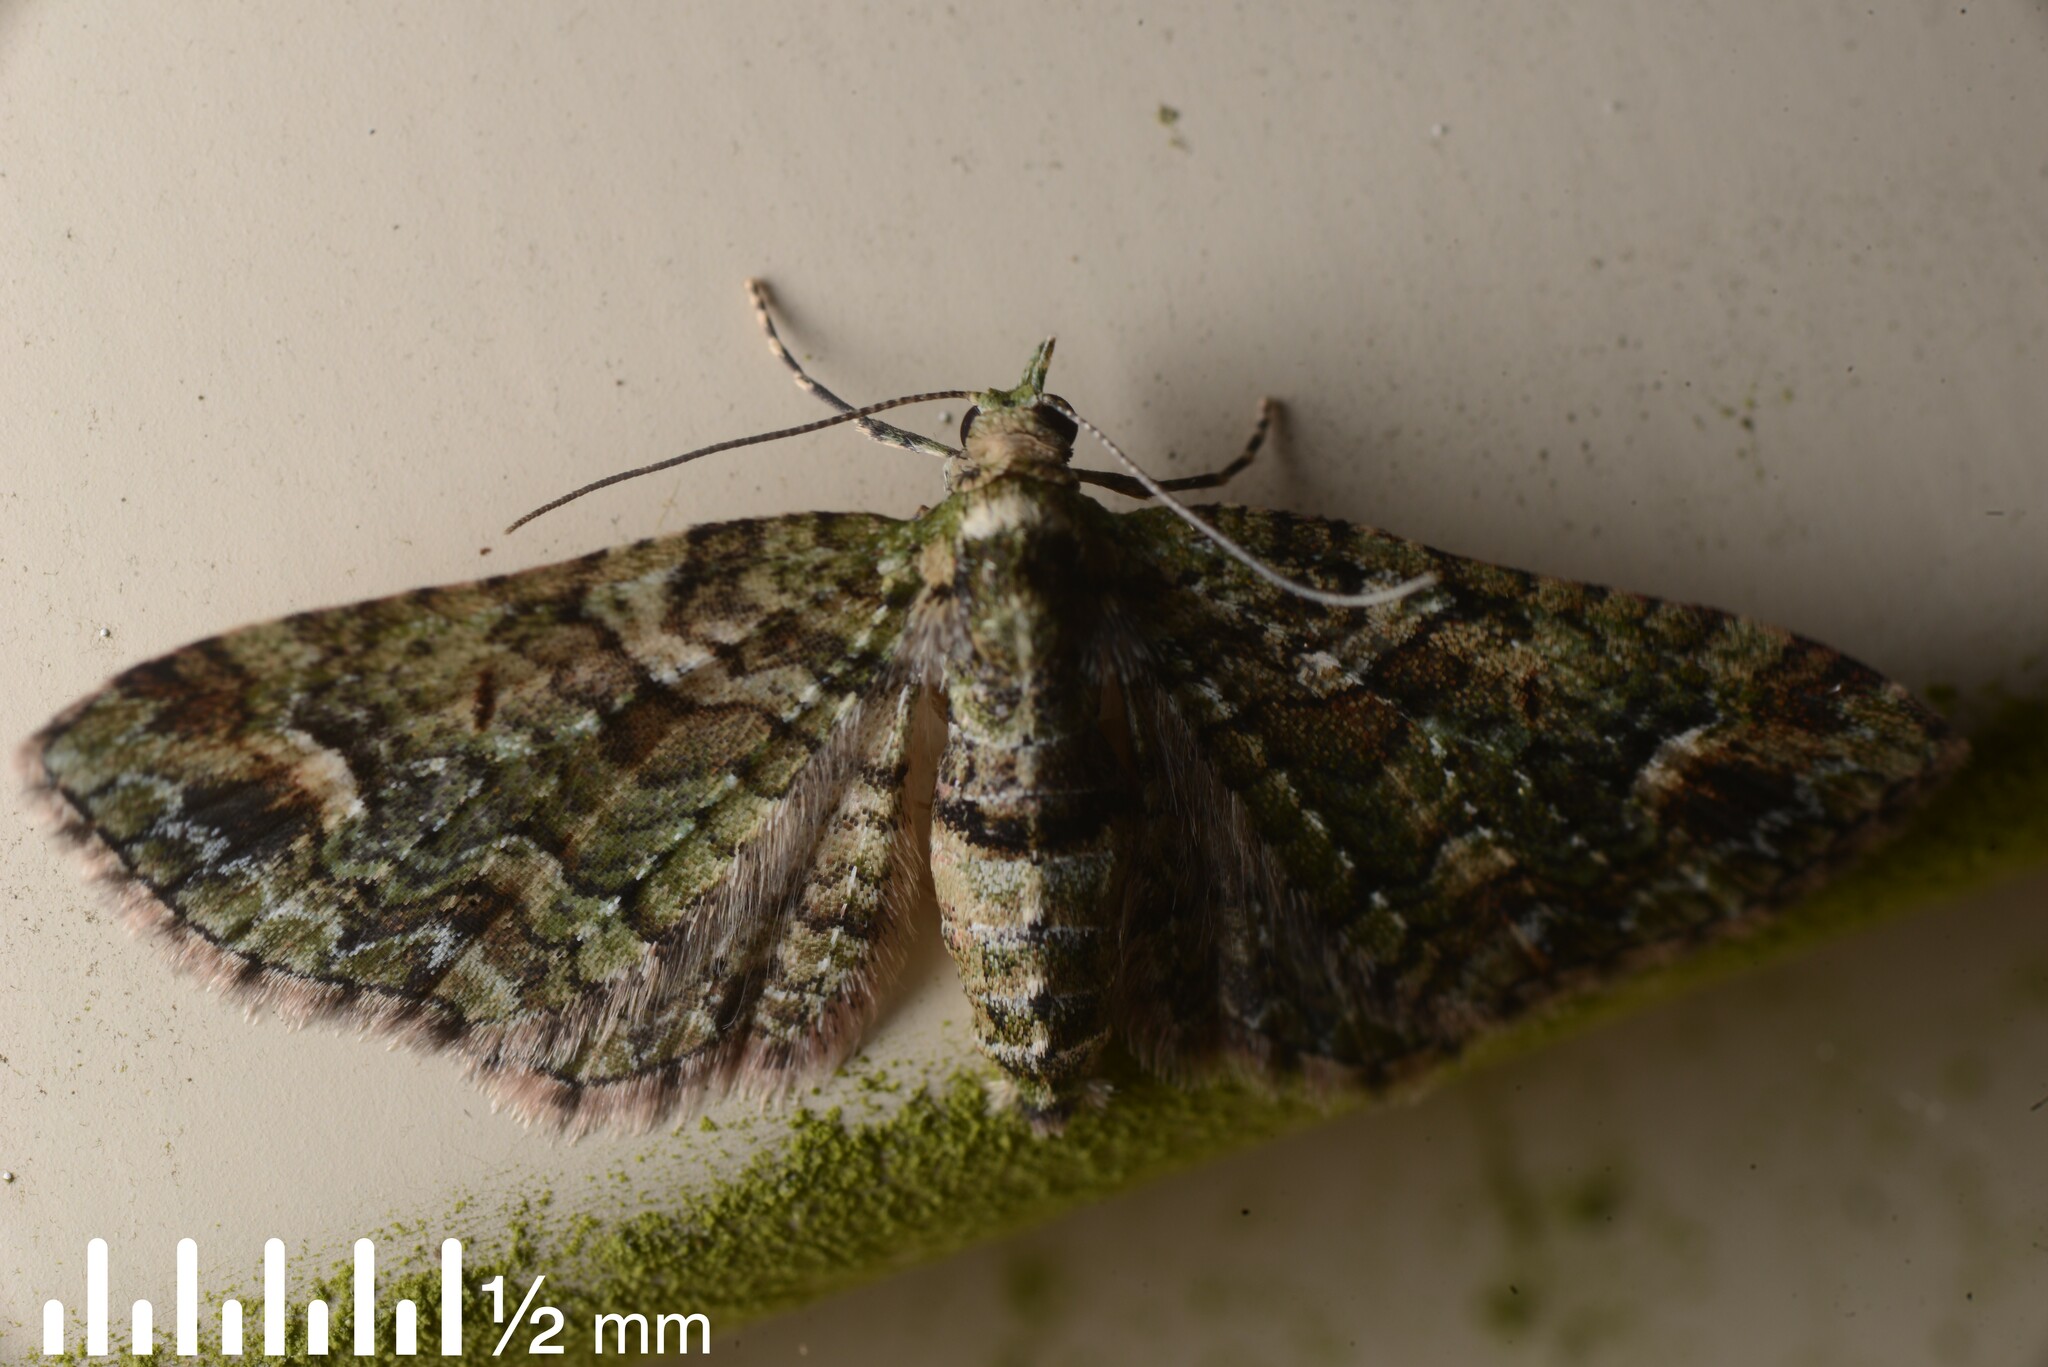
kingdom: Animalia
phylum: Arthropoda
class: Insecta
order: Lepidoptera
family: Geometridae
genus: Idaea
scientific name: Idaea mutanda
